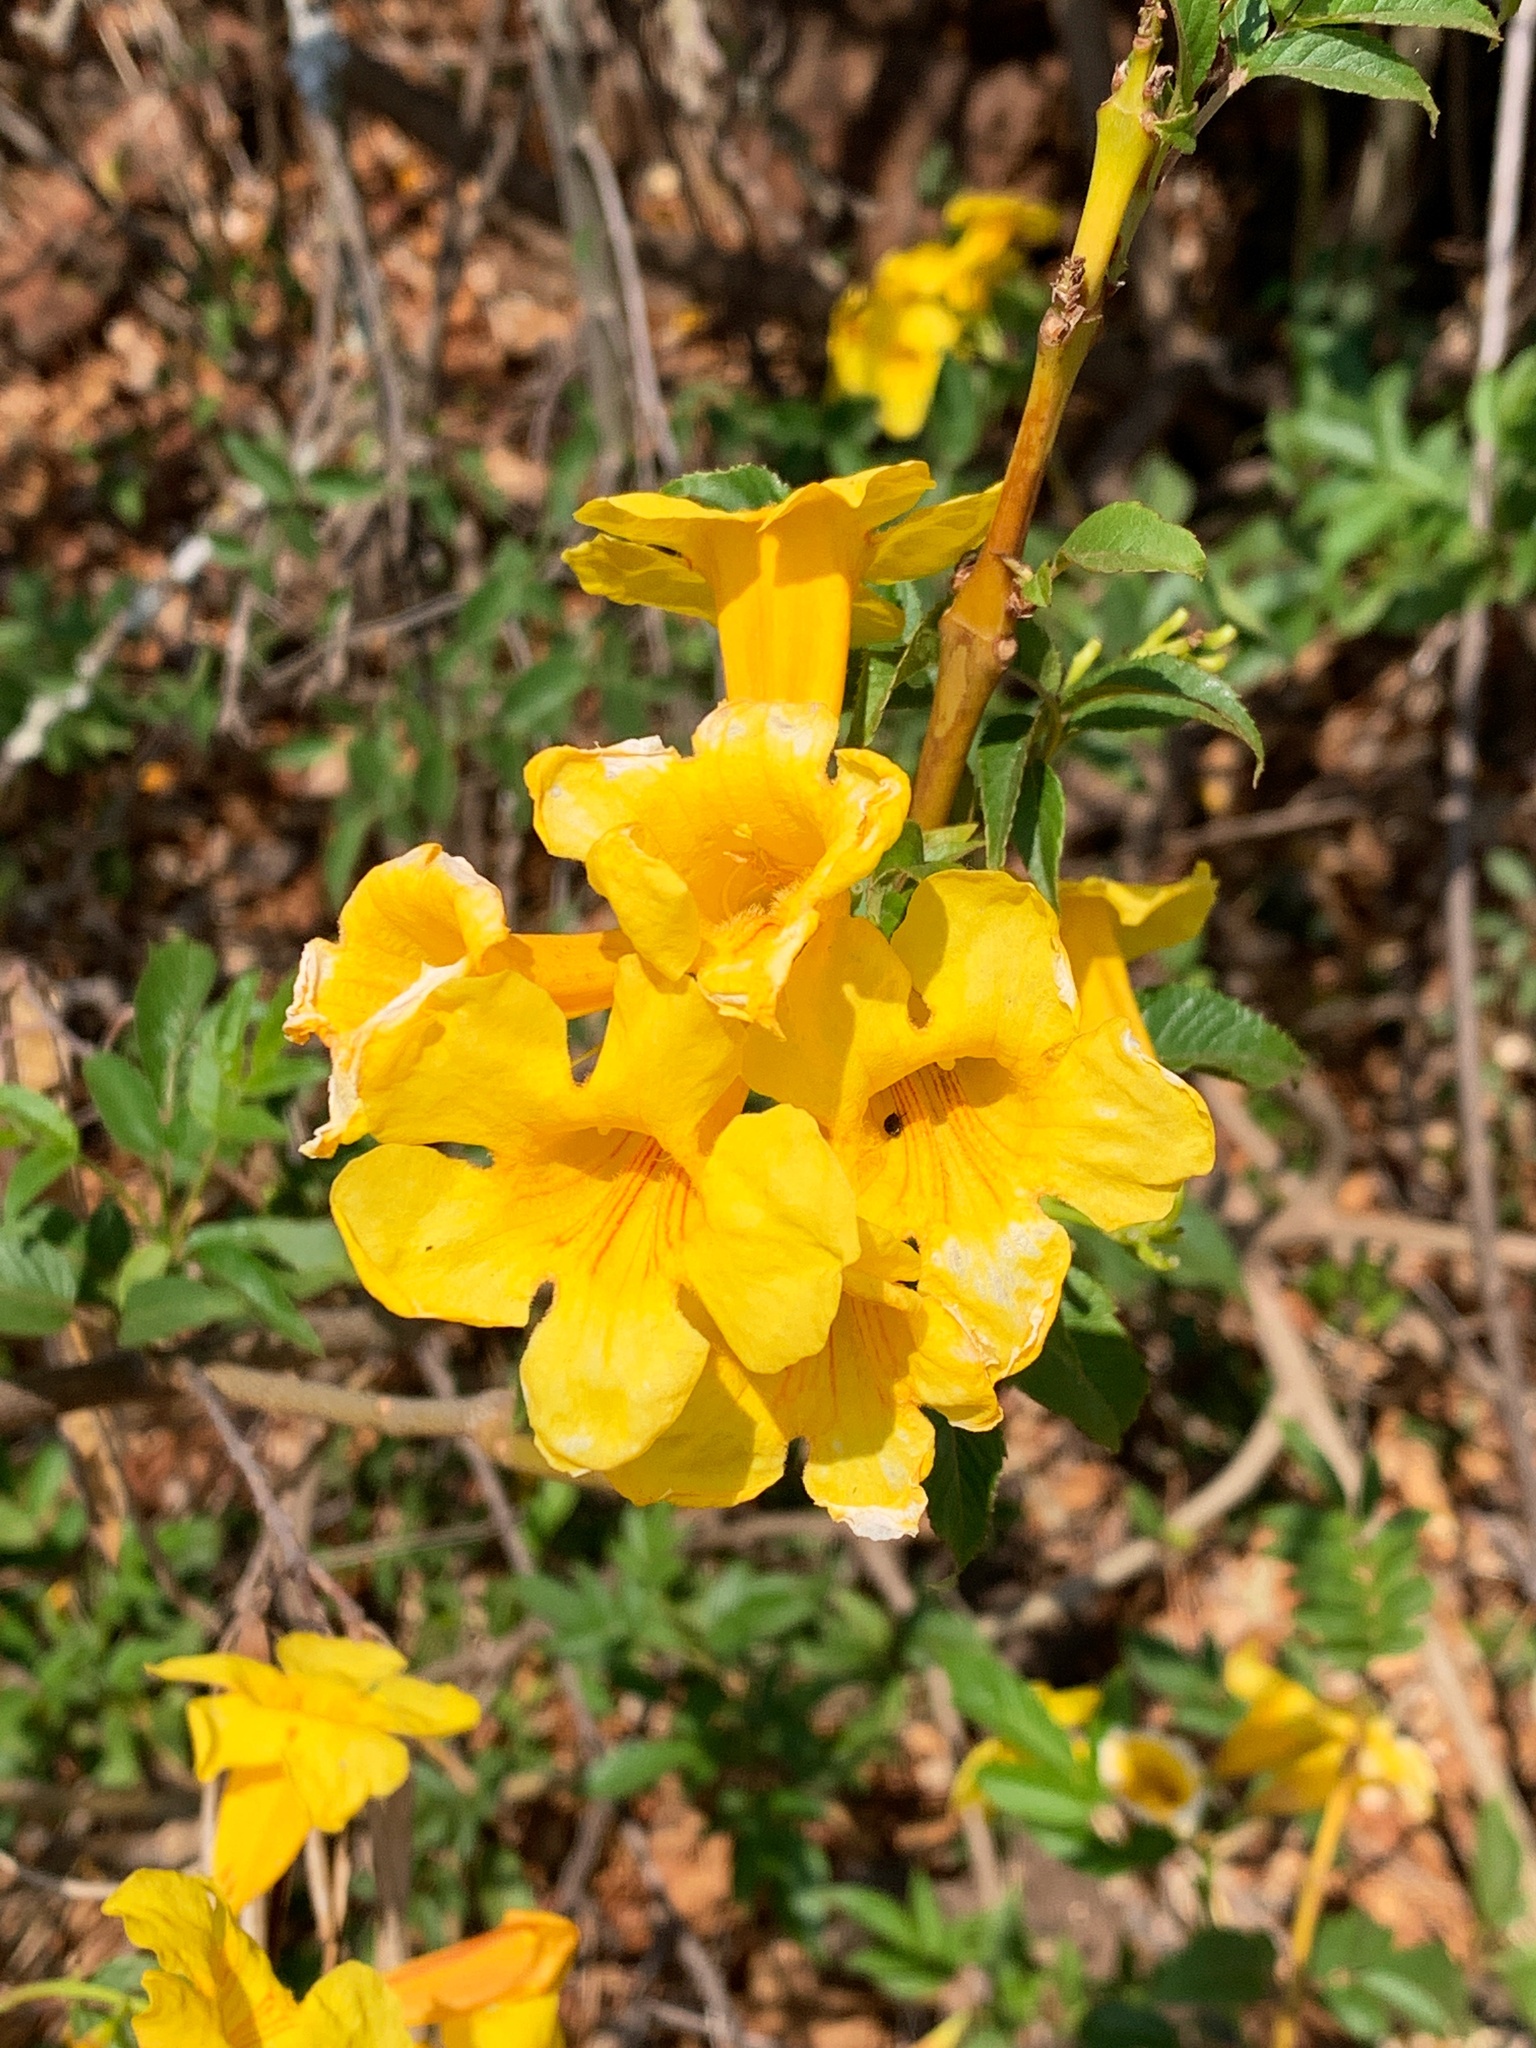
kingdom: Plantae
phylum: Tracheophyta
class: Magnoliopsida
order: Lamiales
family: Bignoniaceae
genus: Tecoma
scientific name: Tecoma stans
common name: Yellow trumpetbush
